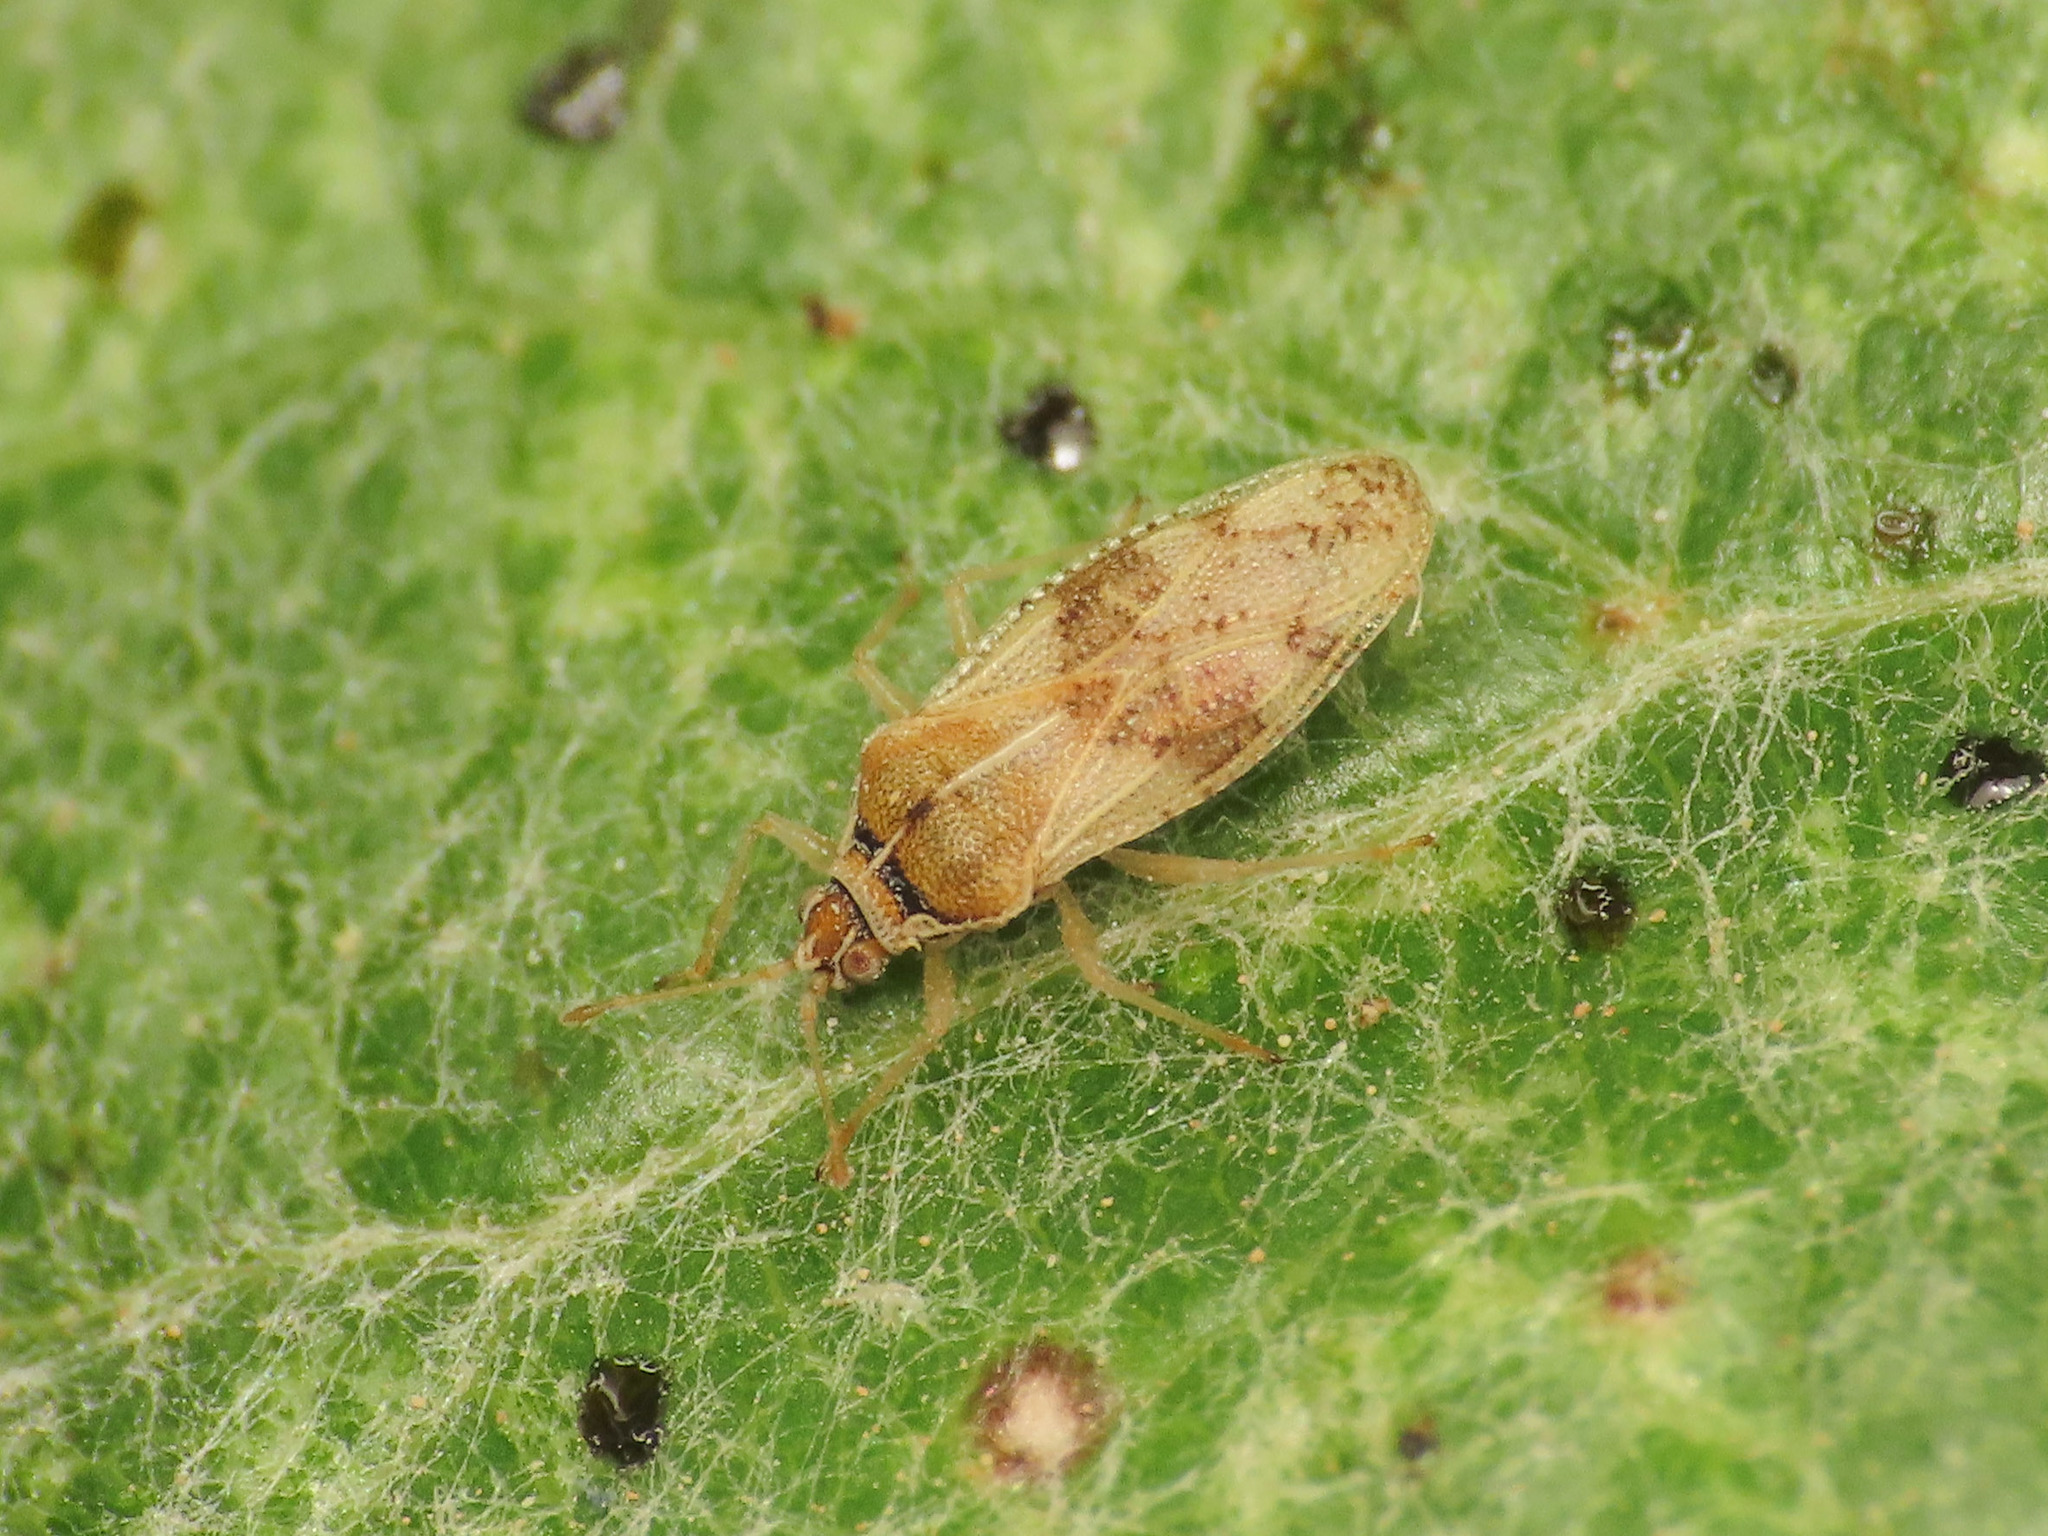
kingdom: Animalia
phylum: Arthropoda
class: Insecta
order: Hemiptera
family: Tingidae
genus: Monosteira
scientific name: Monosteira unicostata
